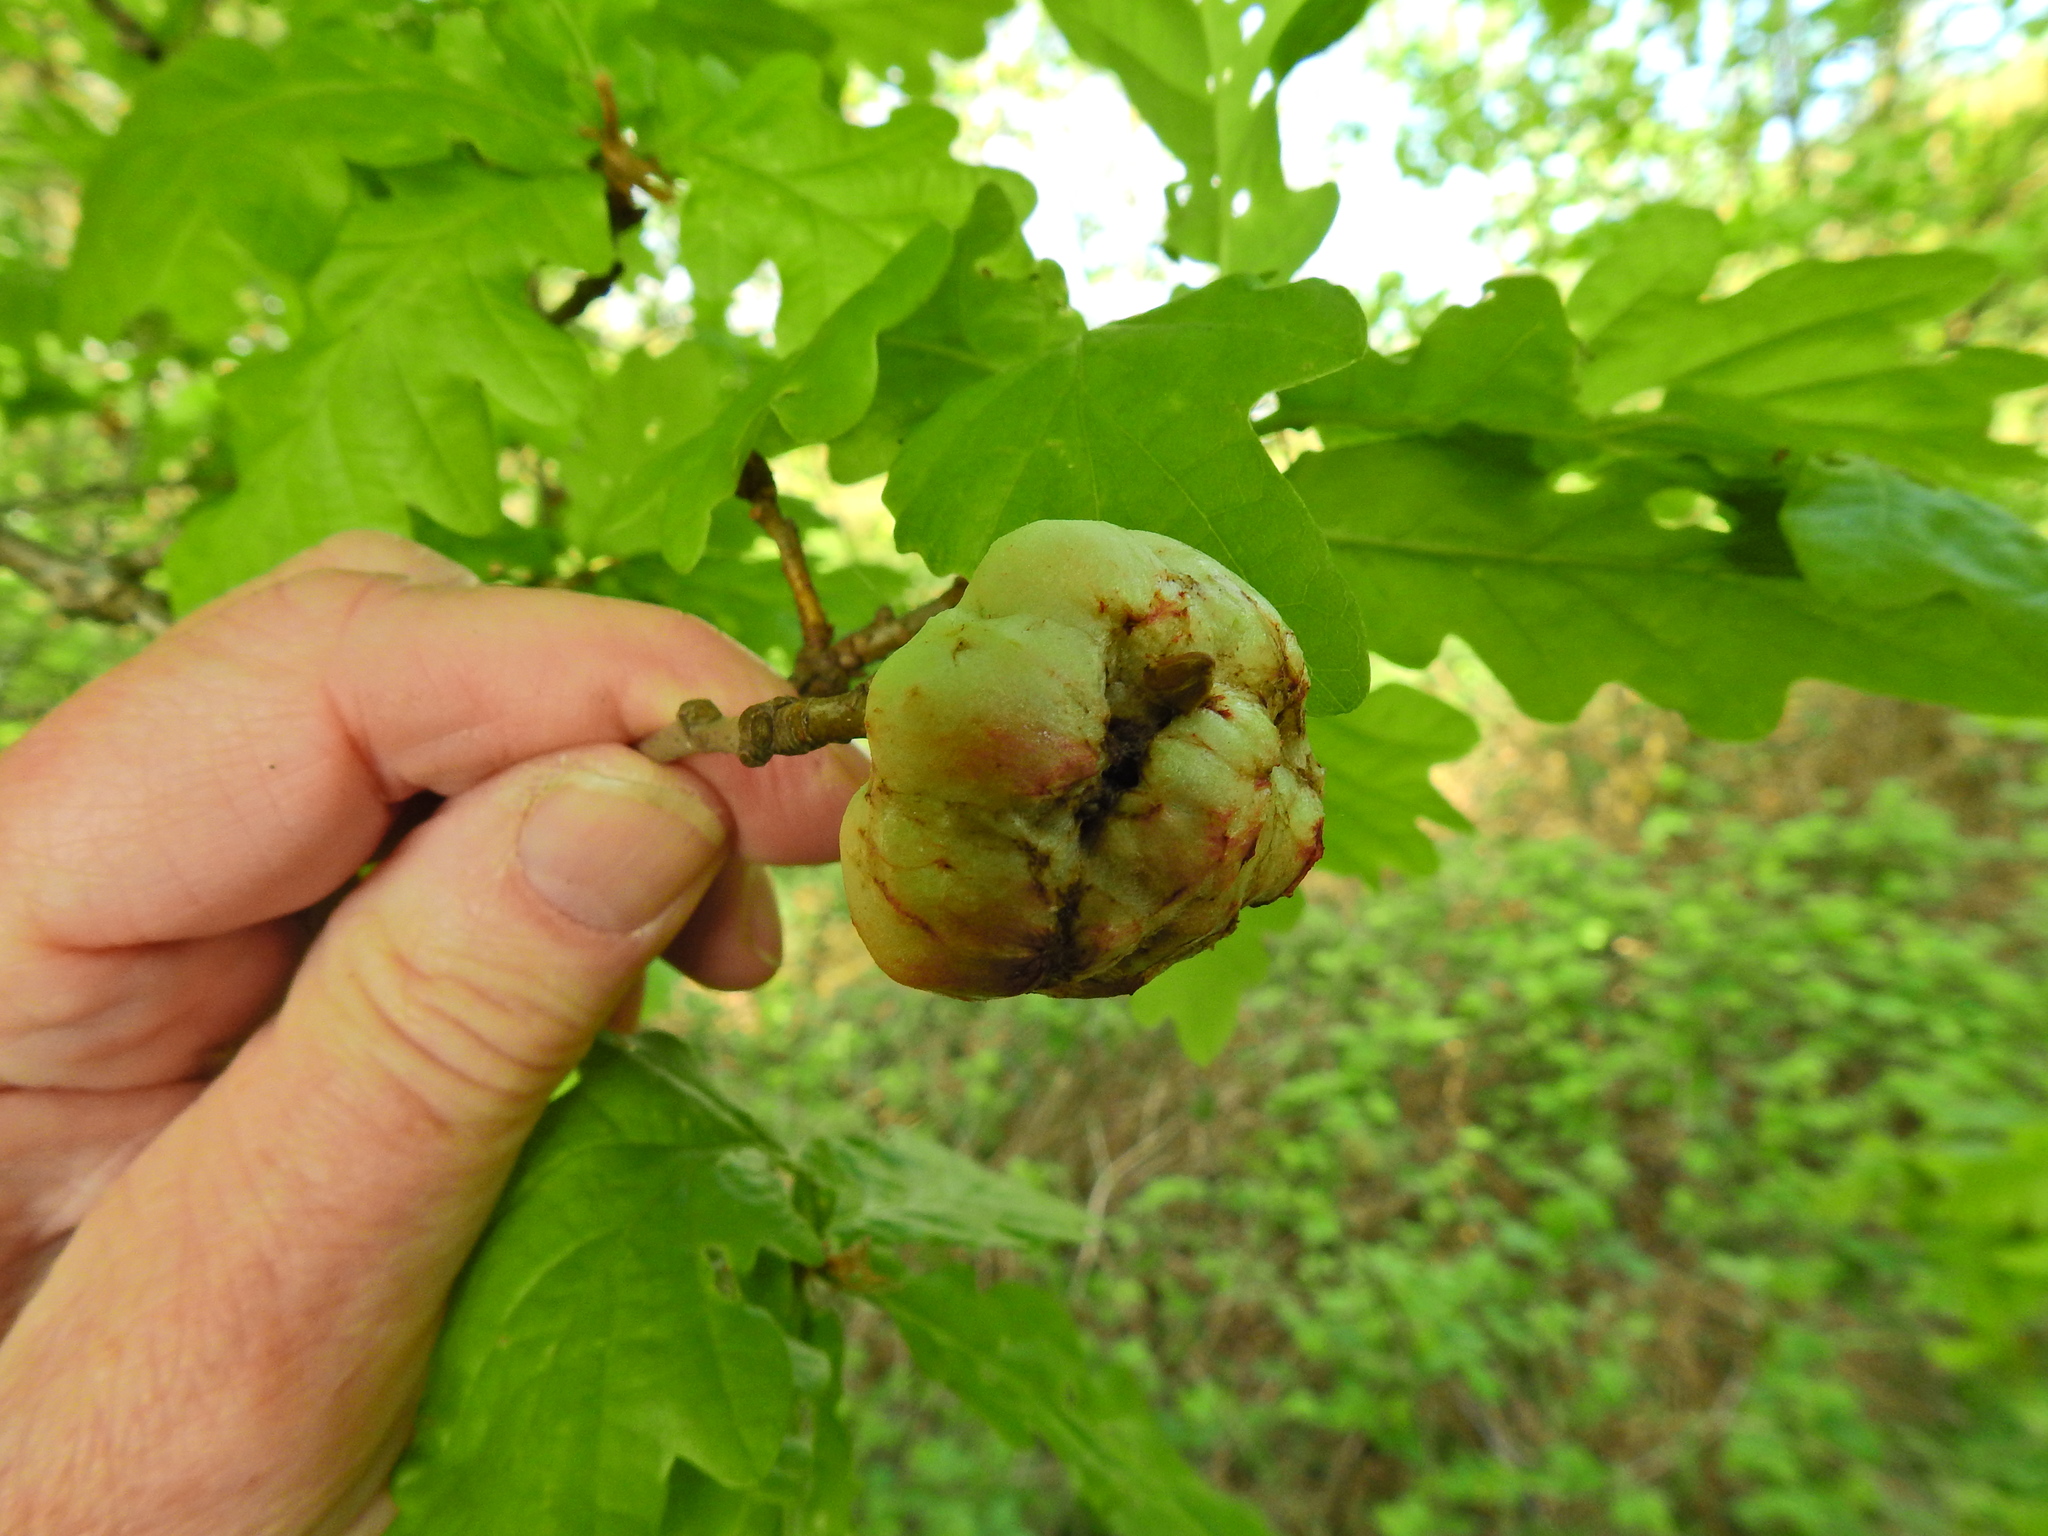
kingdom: Animalia
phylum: Arthropoda
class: Insecta
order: Hymenoptera
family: Cynipidae
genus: Biorhiza
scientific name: Biorhiza pallida
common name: Oak apple
